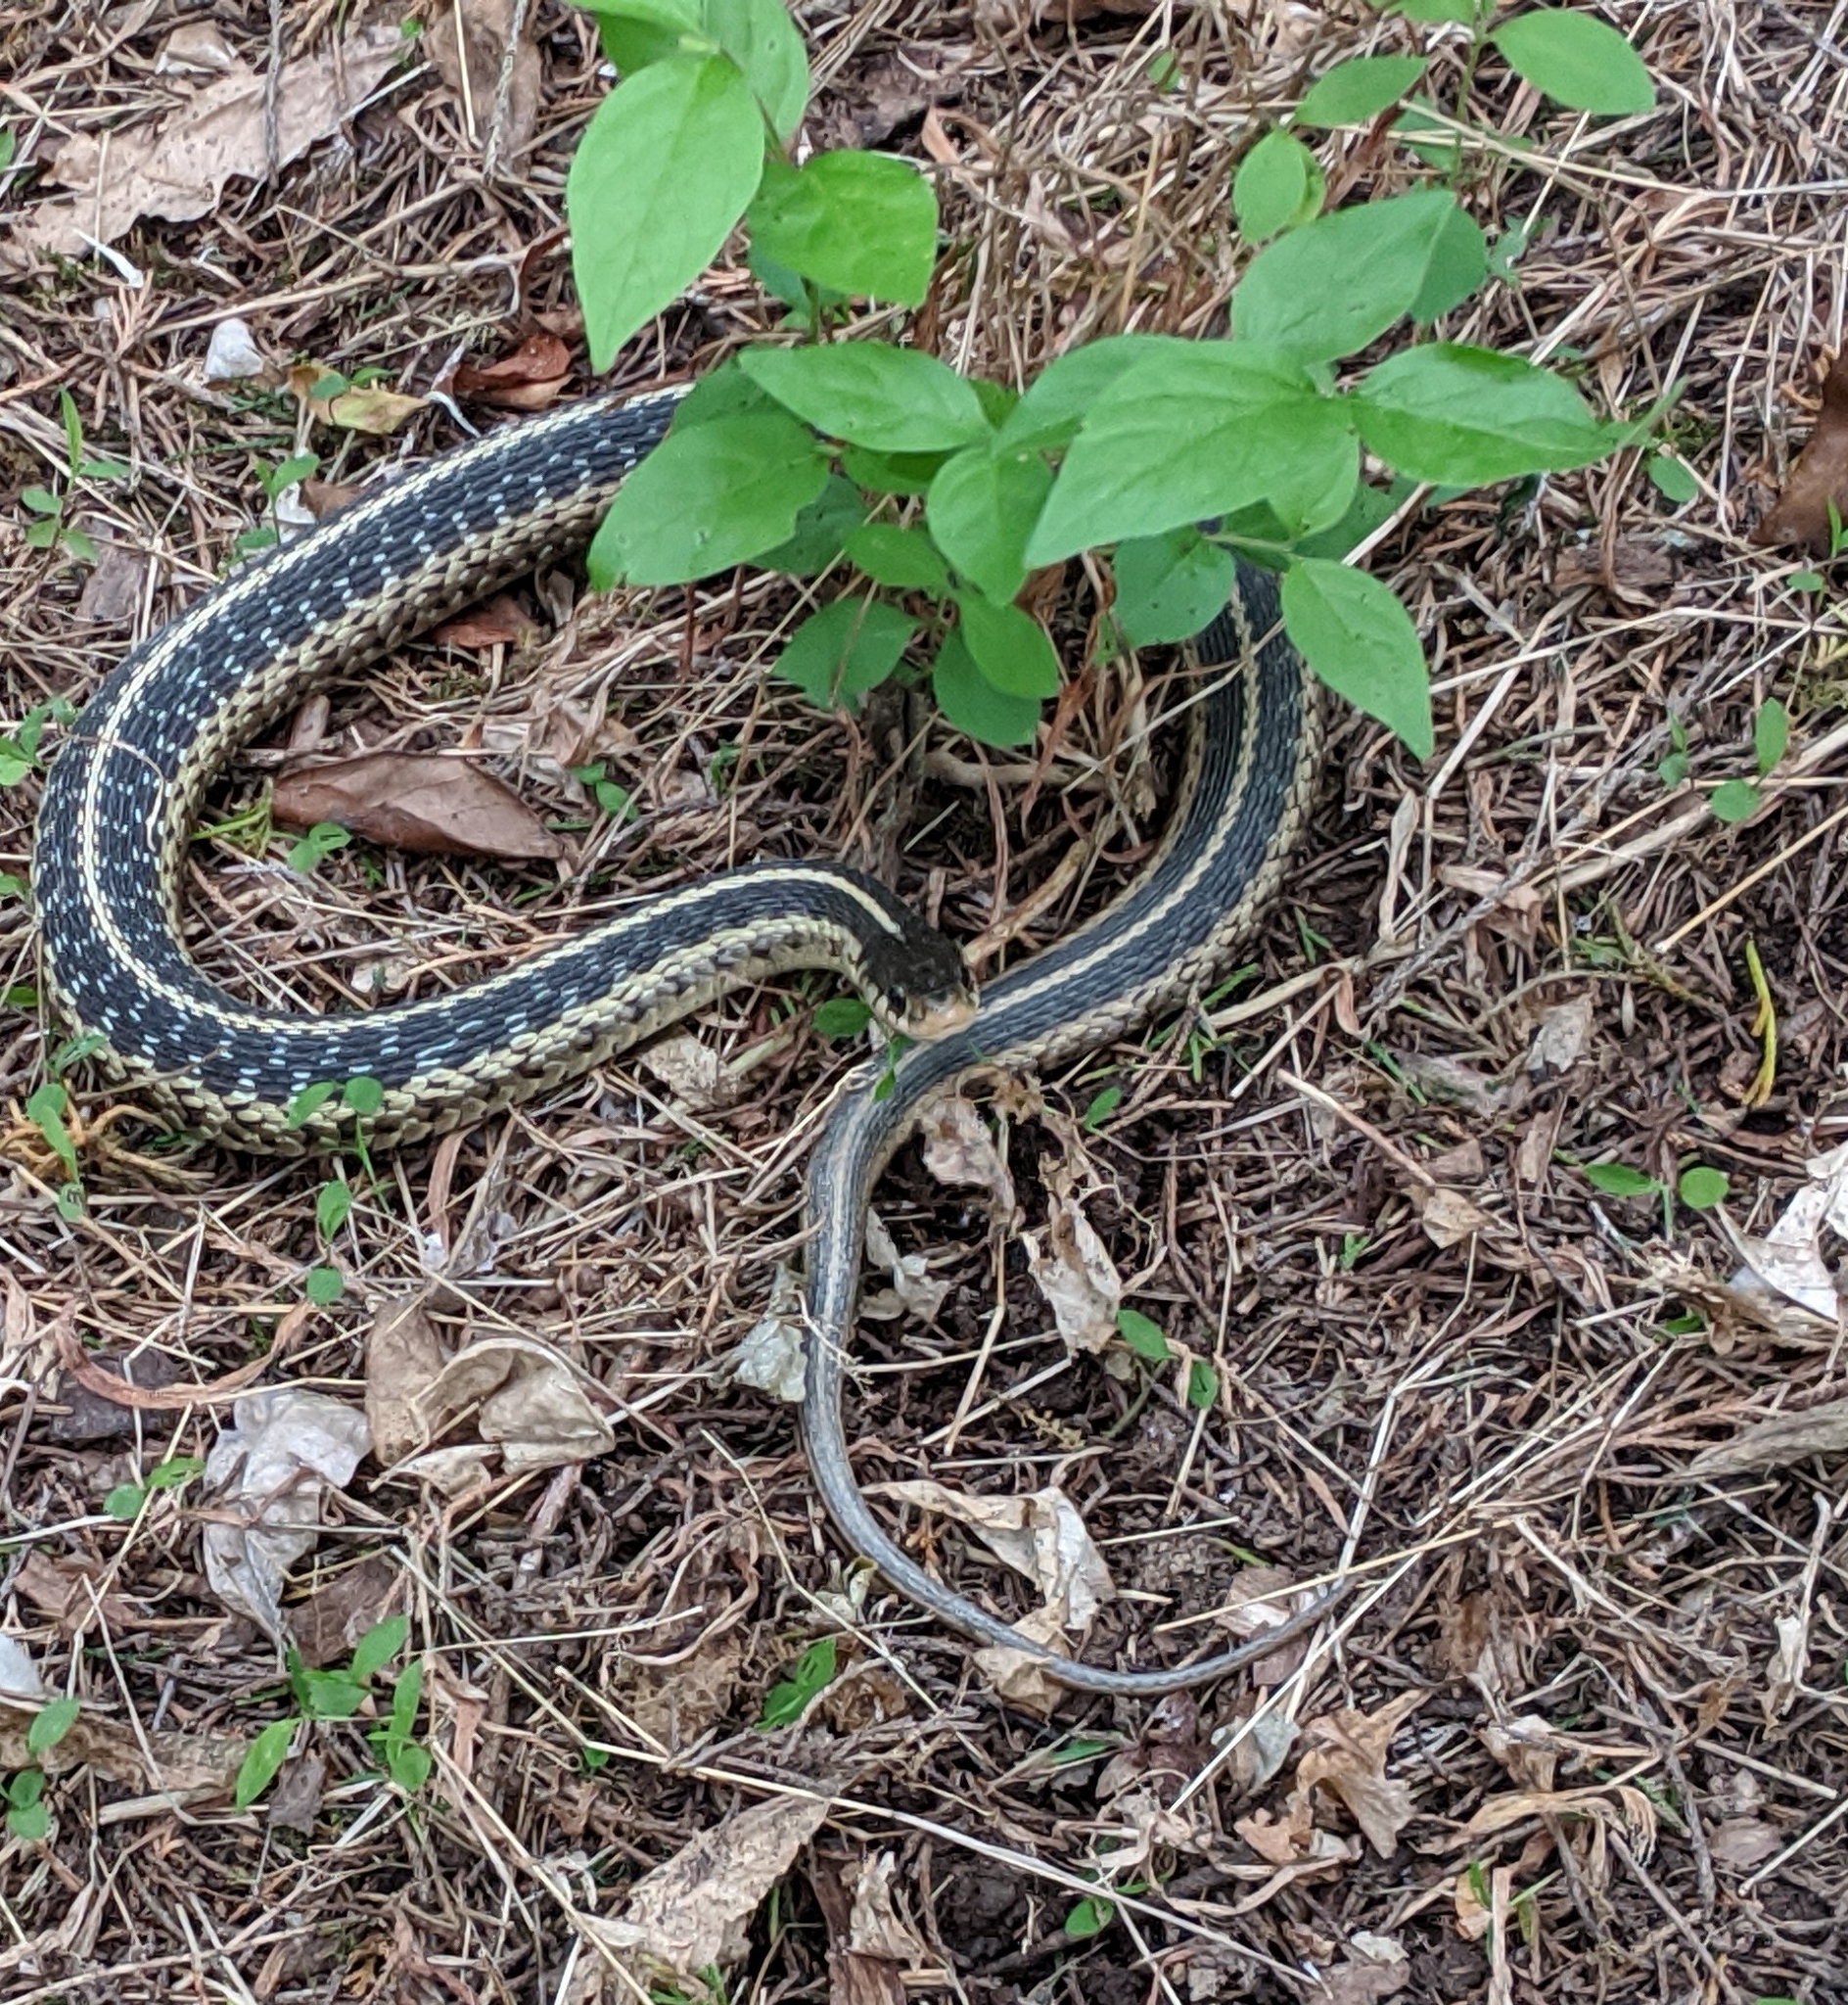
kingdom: Animalia
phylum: Chordata
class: Squamata
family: Colubridae
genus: Thamnophis
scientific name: Thamnophis sirtalis
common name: Common garter snake
